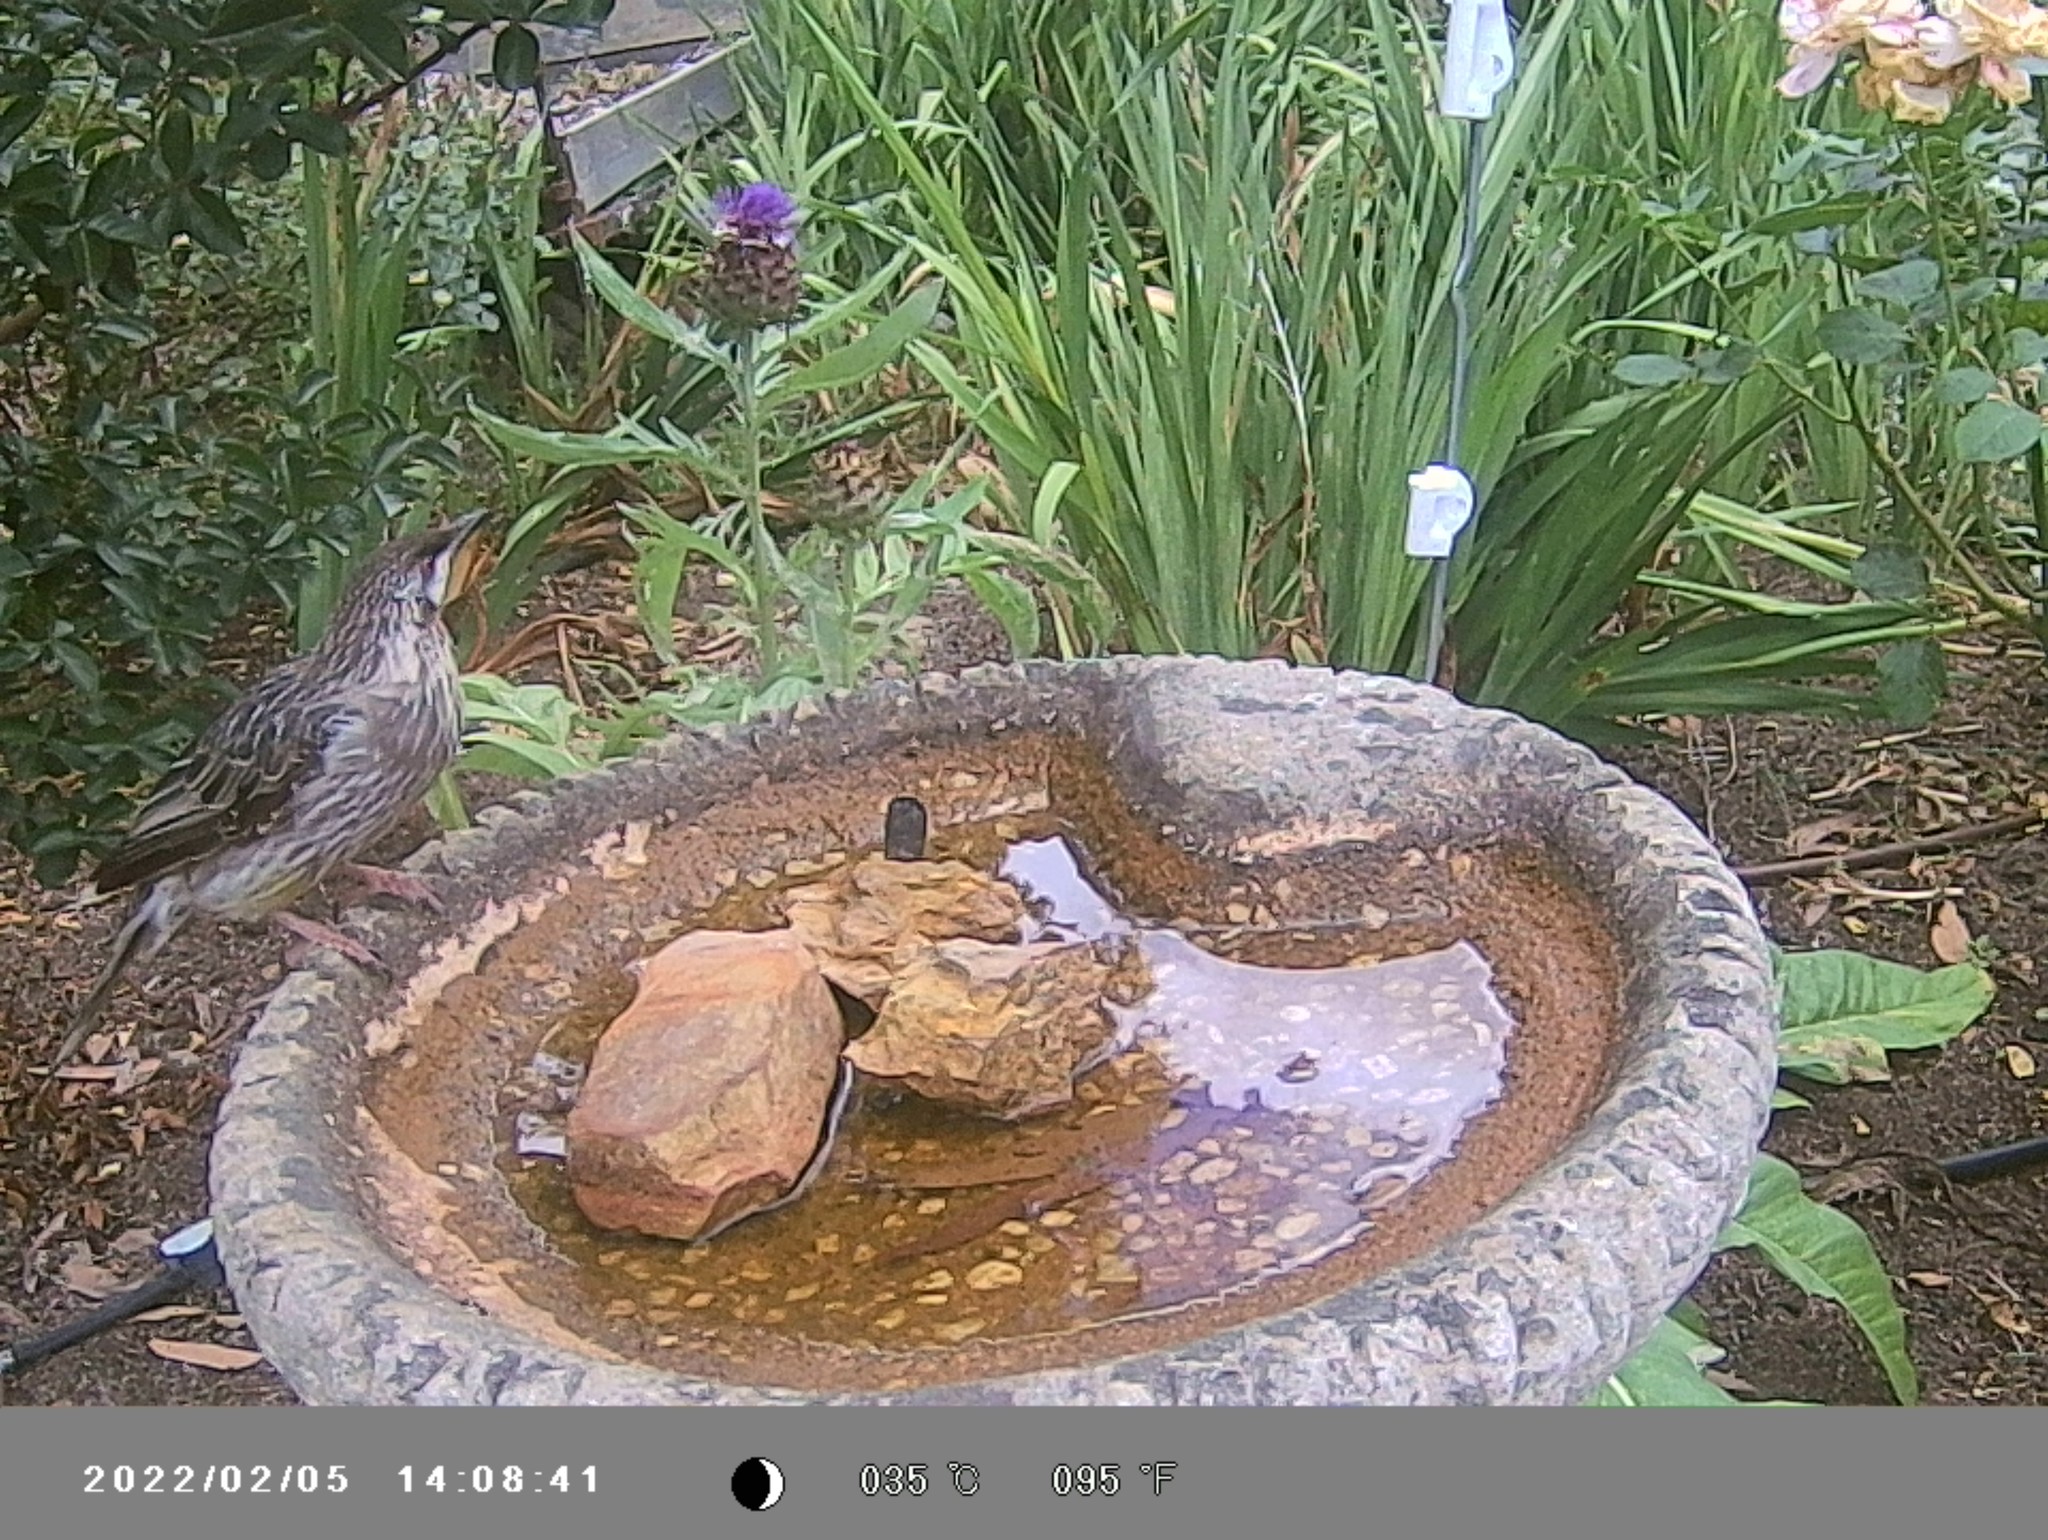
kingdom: Animalia
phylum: Chordata
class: Aves
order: Passeriformes
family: Meliphagidae
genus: Anthochaera
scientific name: Anthochaera carunculata
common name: Red wattlebird
